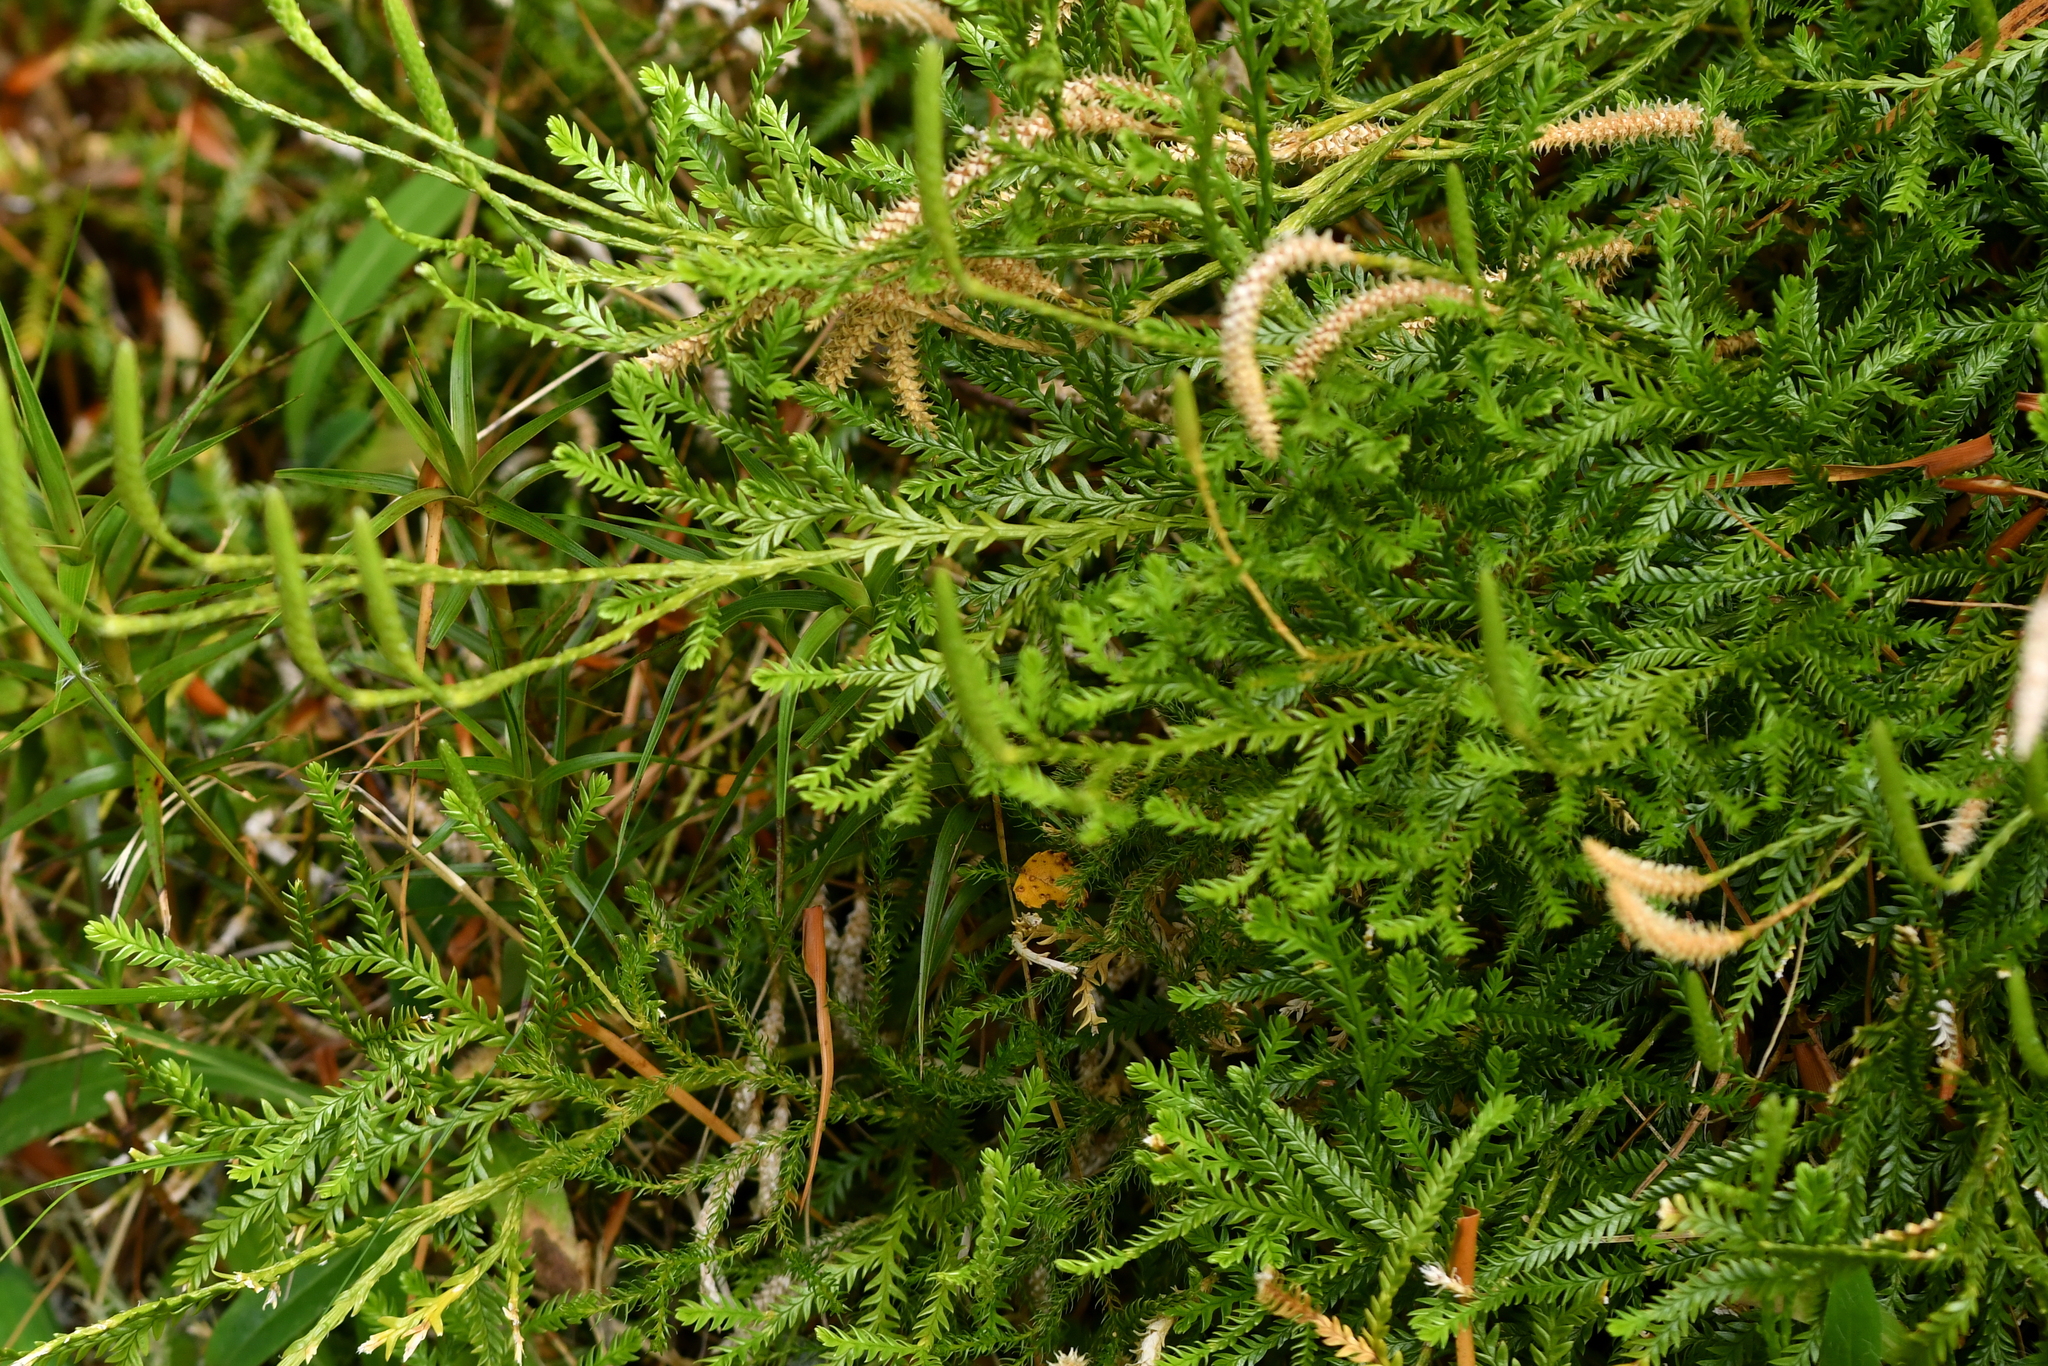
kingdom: Plantae
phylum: Tracheophyta
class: Lycopodiopsida
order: Lycopodiales
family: Lycopodiaceae
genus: Diphasium
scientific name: Diphasium scariosum
